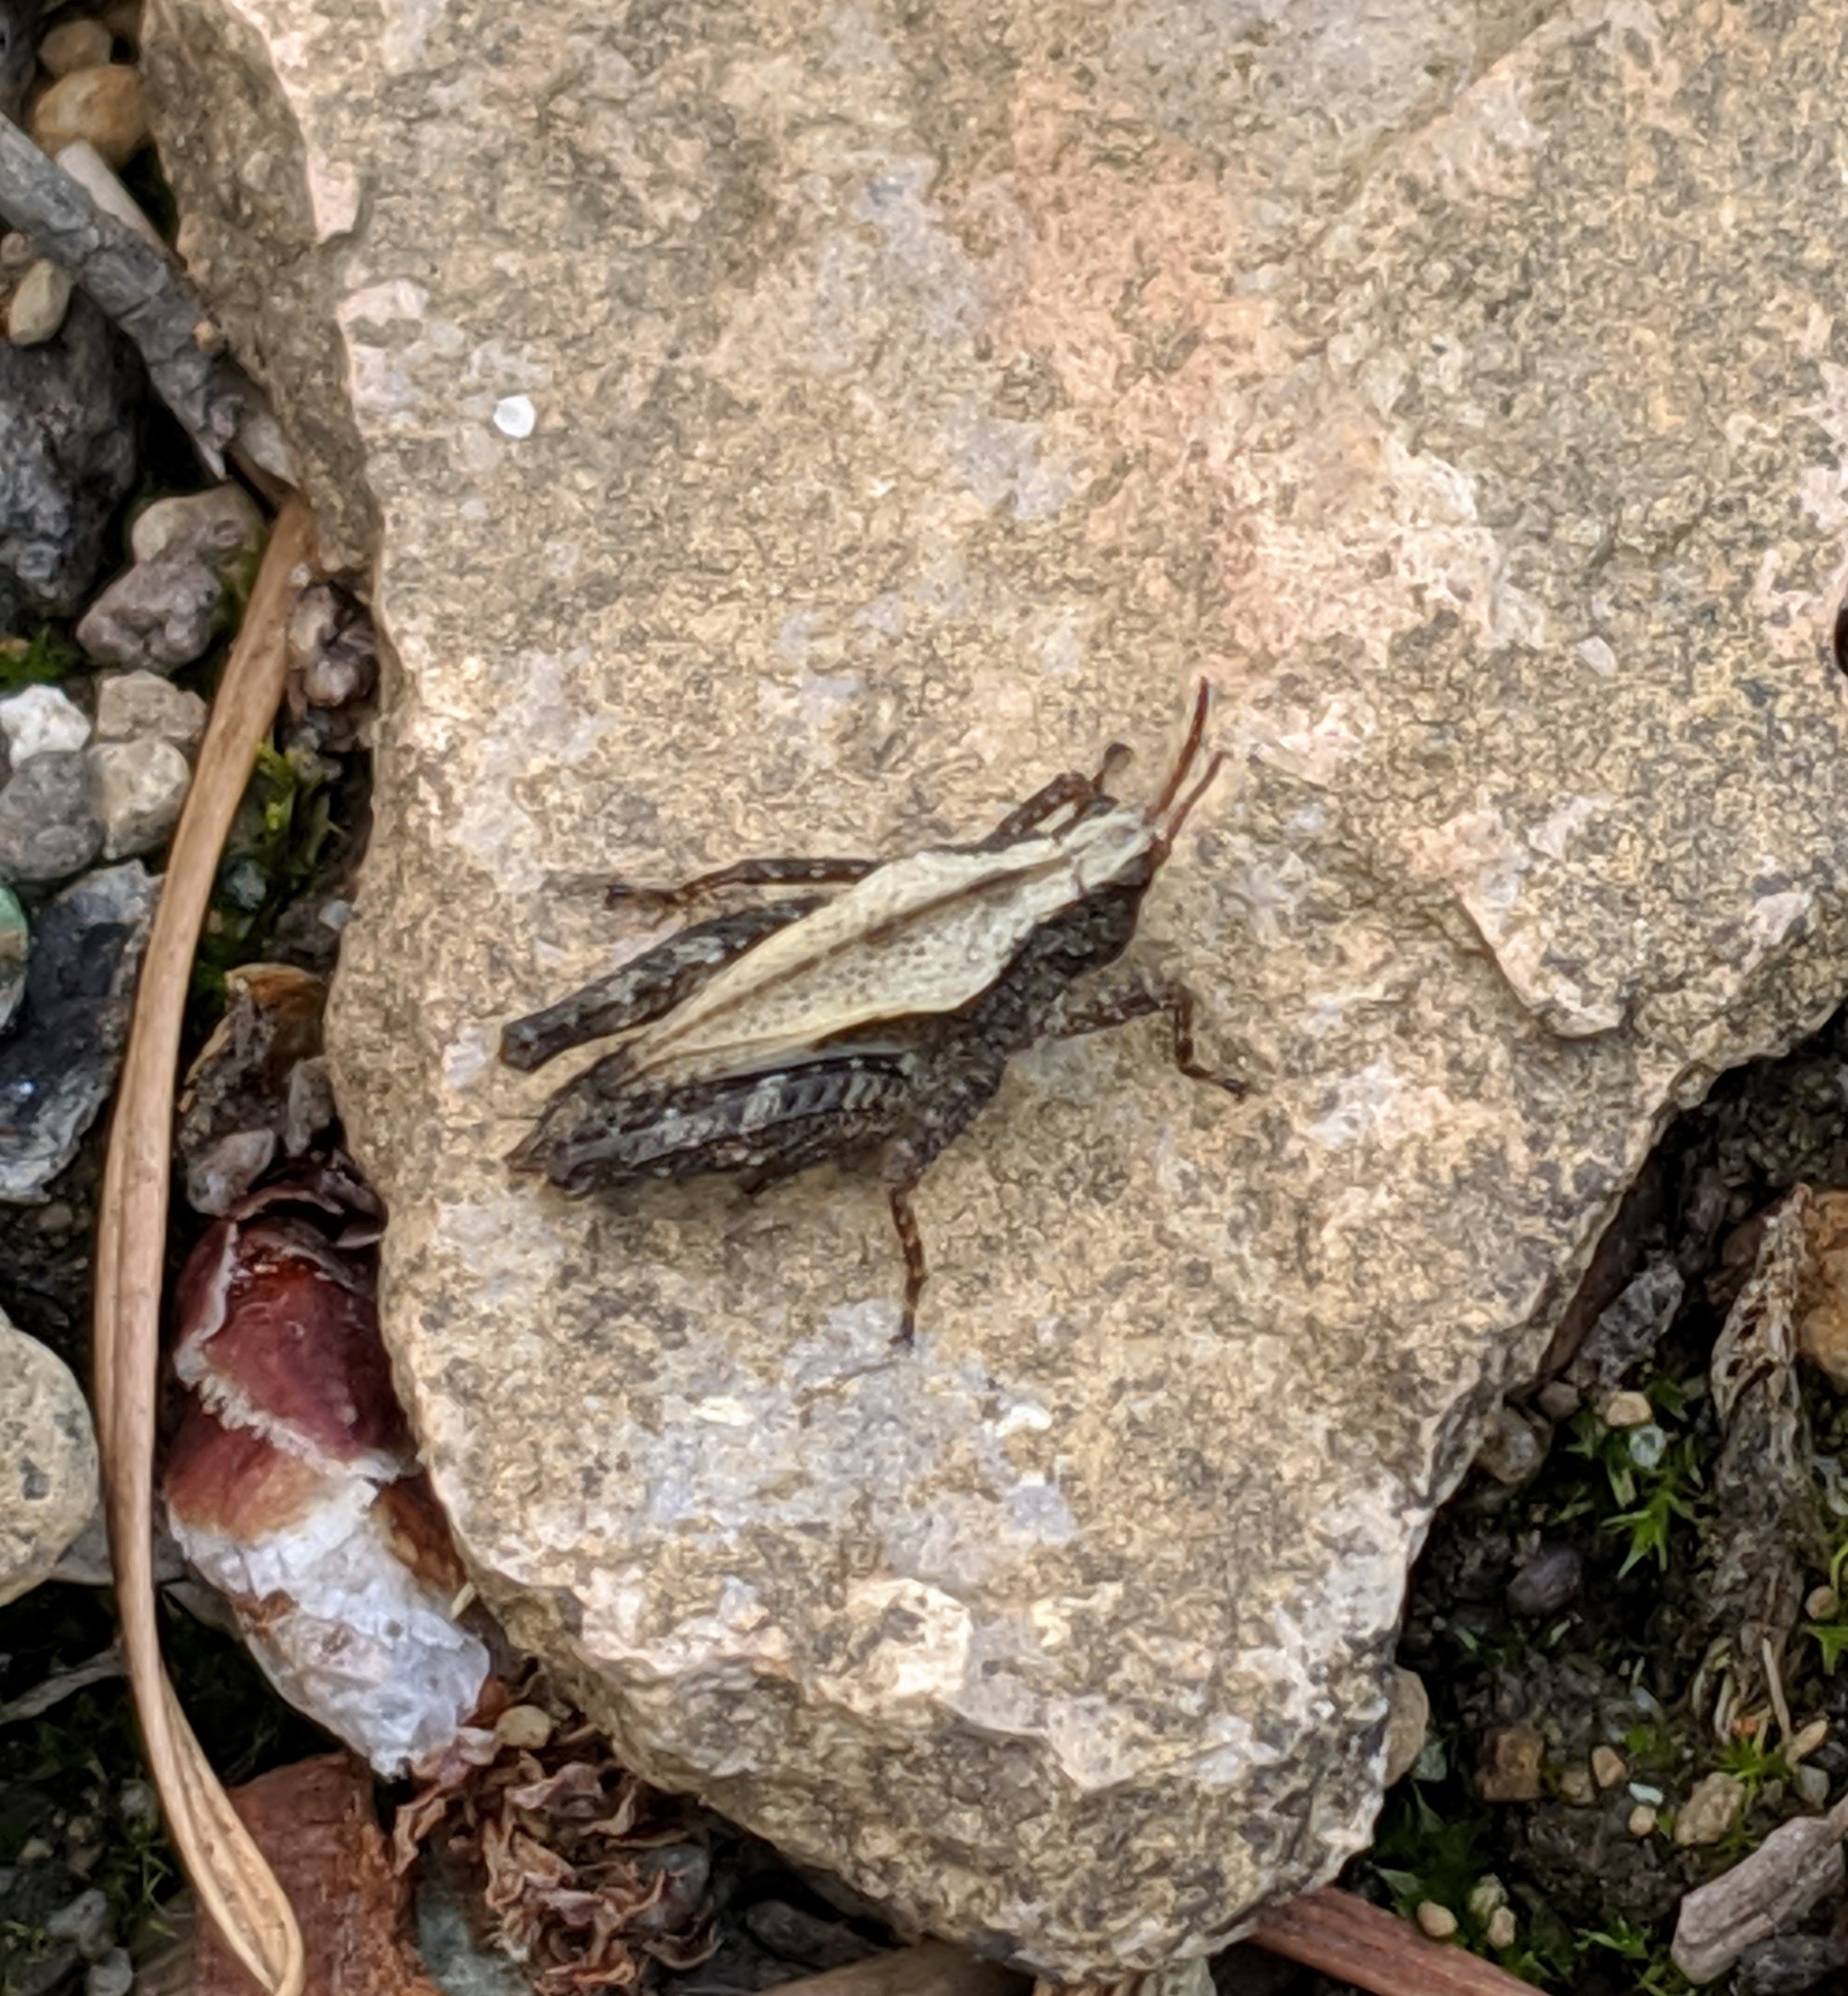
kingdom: Animalia
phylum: Arthropoda
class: Insecta
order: Orthoptera
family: Tetrigidae
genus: Tetrix
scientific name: Tetrix subulata
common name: Slender ground-hopper
